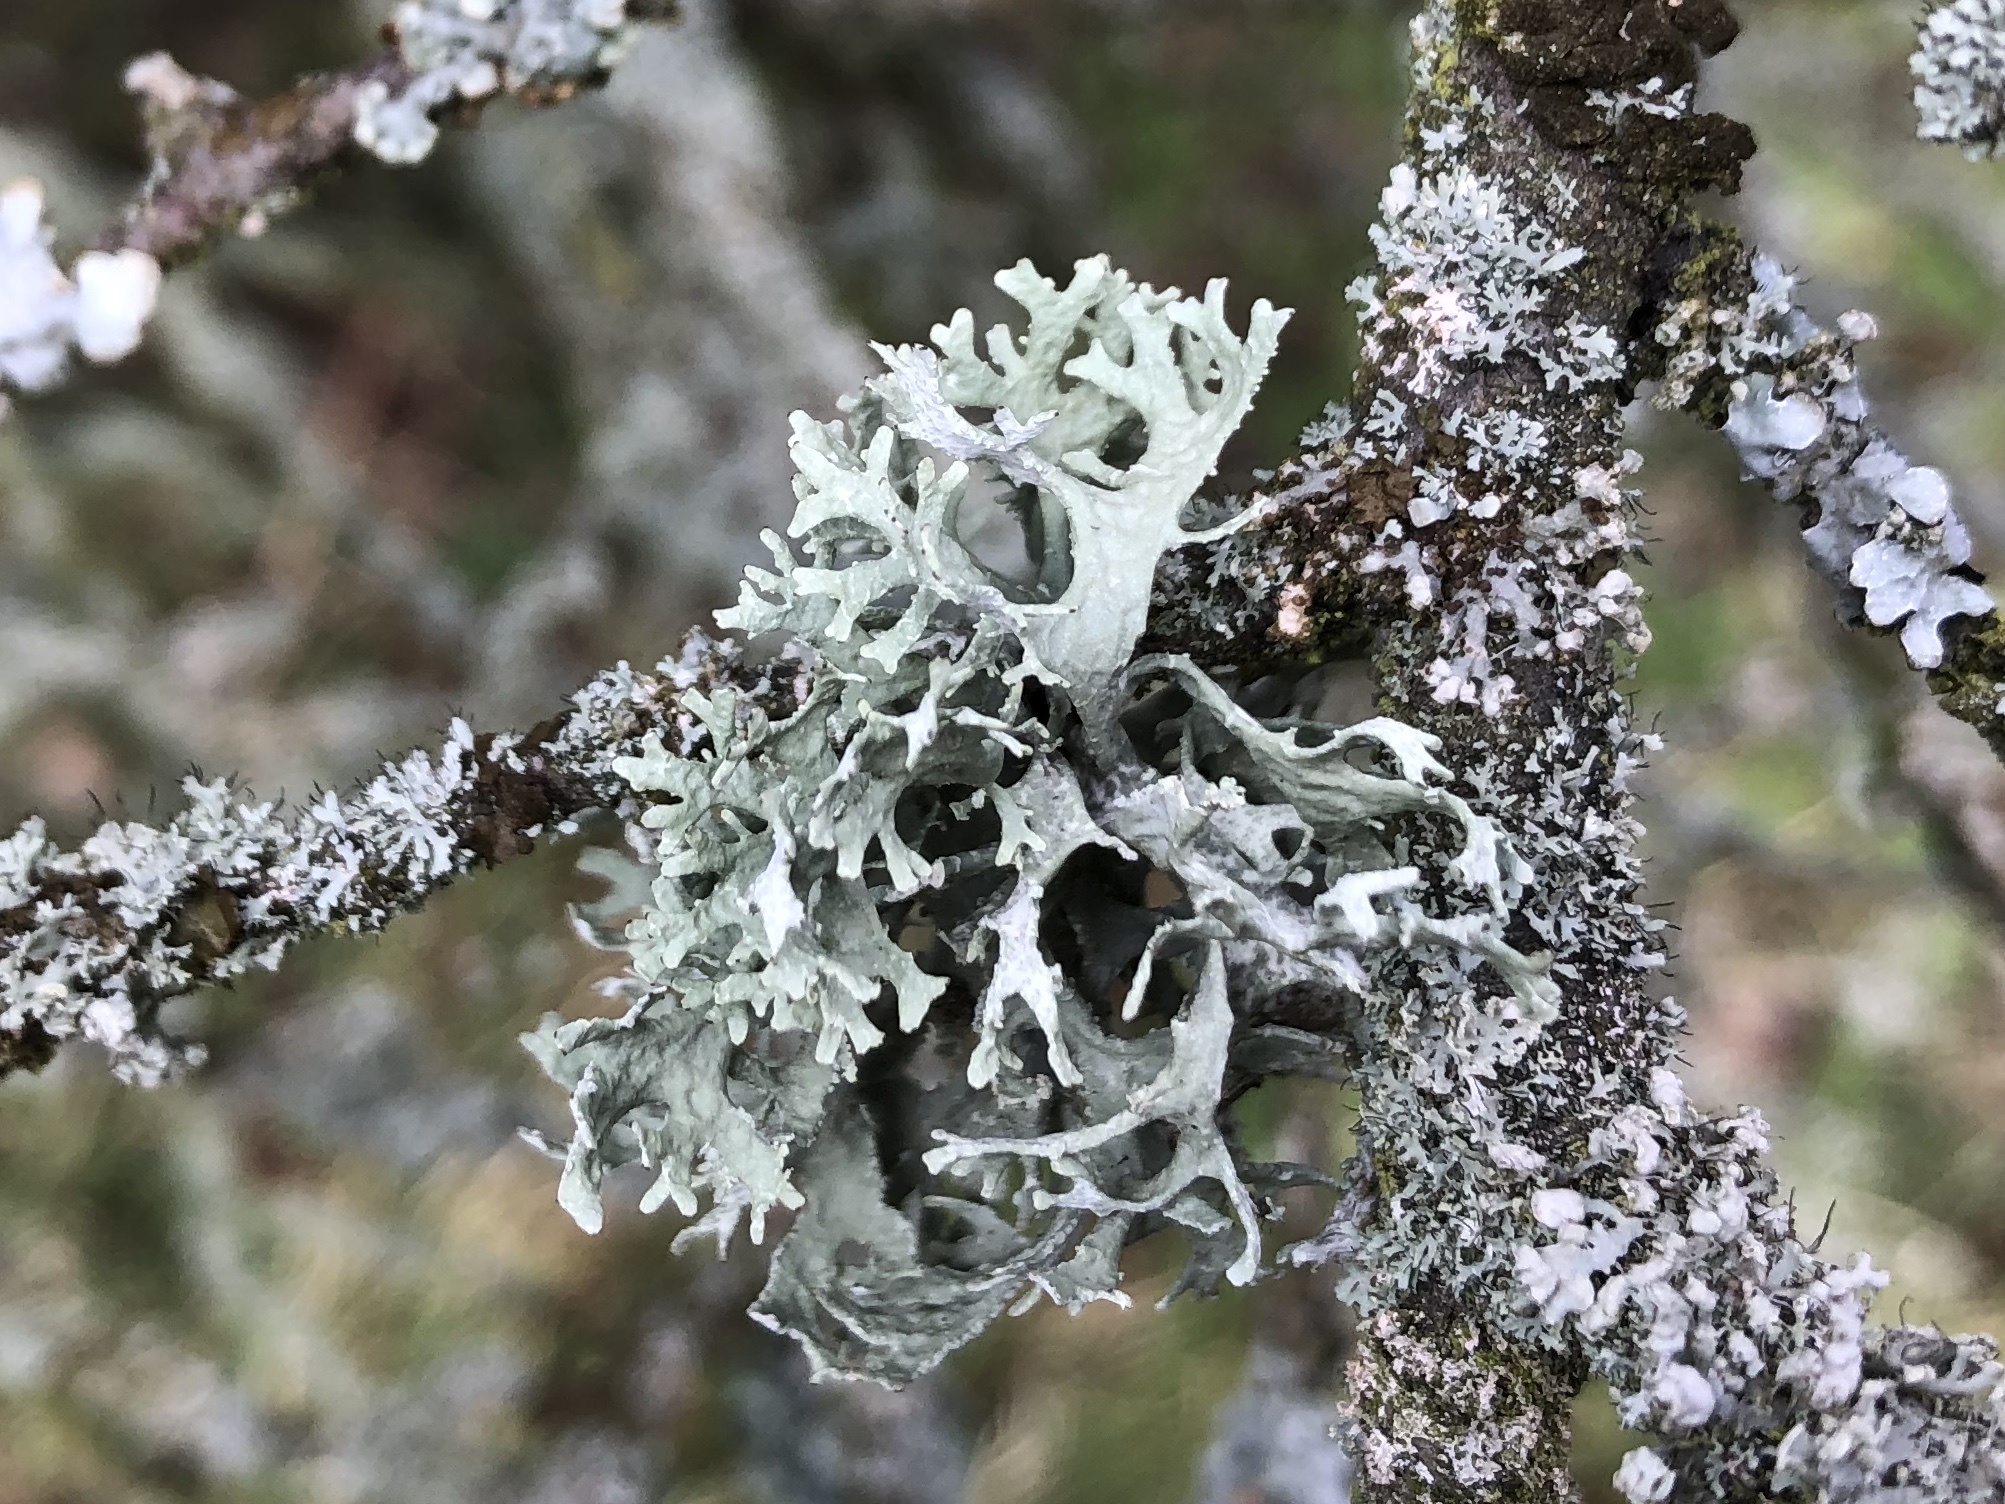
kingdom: Fungi
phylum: Ascomycota
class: Lecanoromycetes
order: Lecanorales
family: Parmeliaceae
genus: Evernia
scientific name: Evernia prunastri
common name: Oak moss
